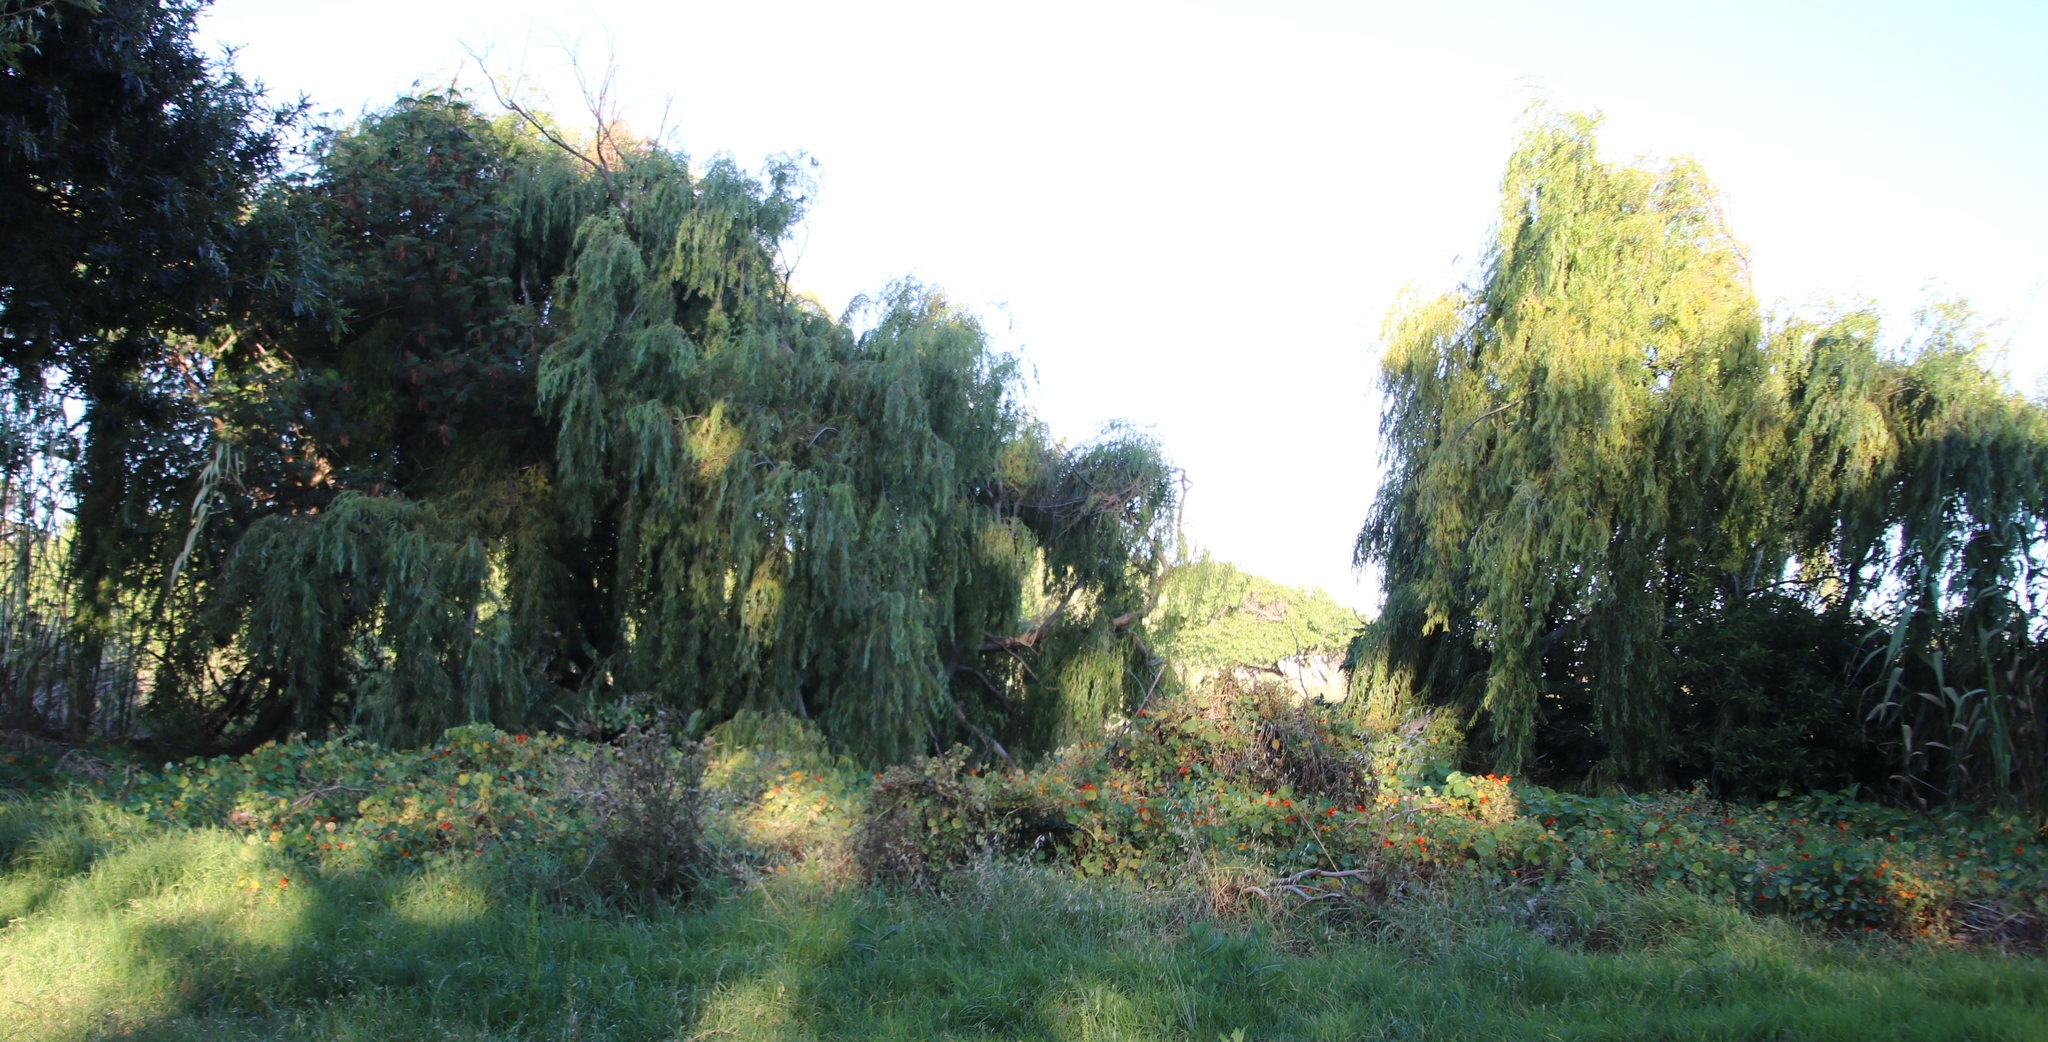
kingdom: Plantae
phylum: Tracheophyta
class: Magnoliopsida
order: Malpighiales
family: Salicaceae
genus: Salix
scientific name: Salix babylonica
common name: Weeping willow
